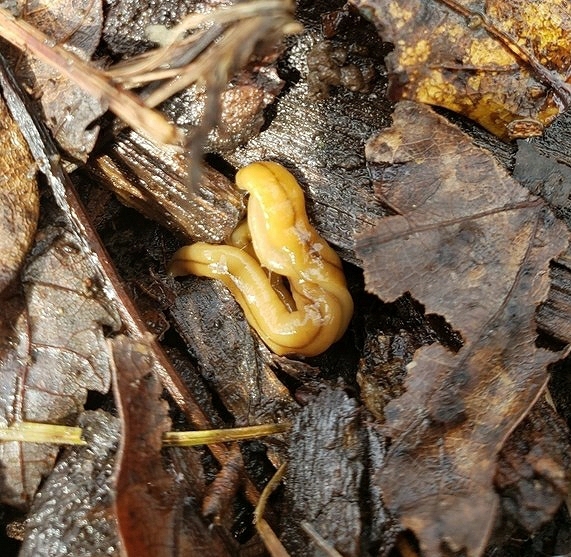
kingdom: Animalia
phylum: Platyhelminthes
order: Tricladida
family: Geoplanidae
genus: Bipalium
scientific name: Bipalium adventitium
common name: Land planarian
